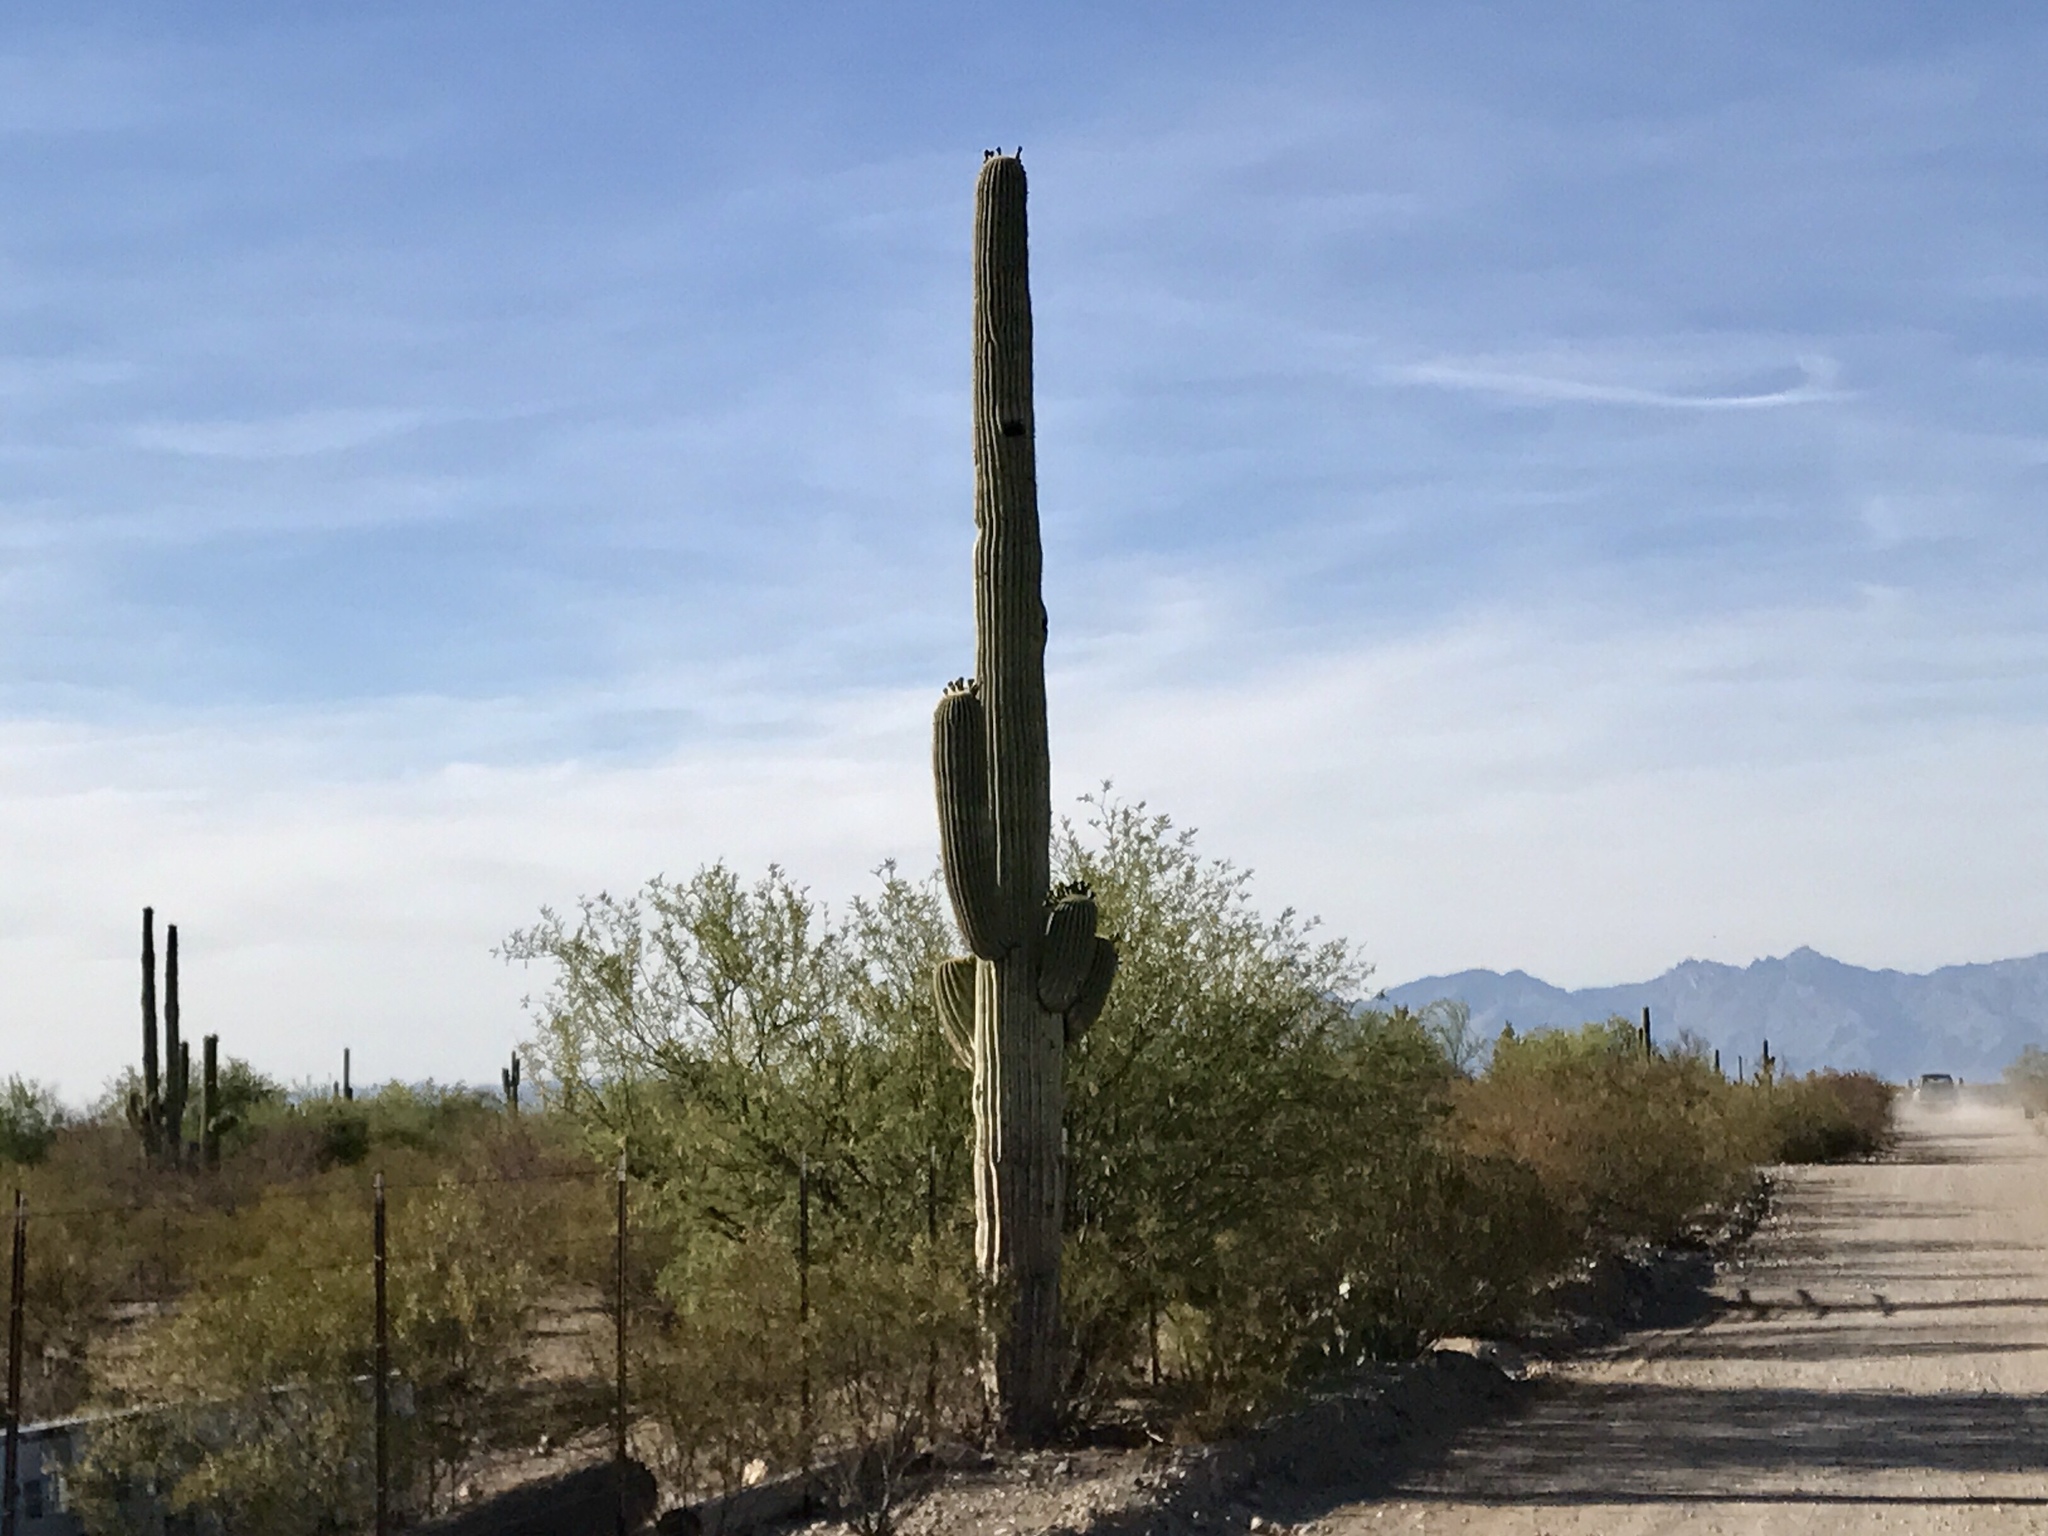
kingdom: Plantae
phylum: Tracheophyta
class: Magnoliopsida
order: Caryophyllales
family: Cactaceae
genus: Carnegiea
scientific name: Carnegiea gigantea
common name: Saguaro
